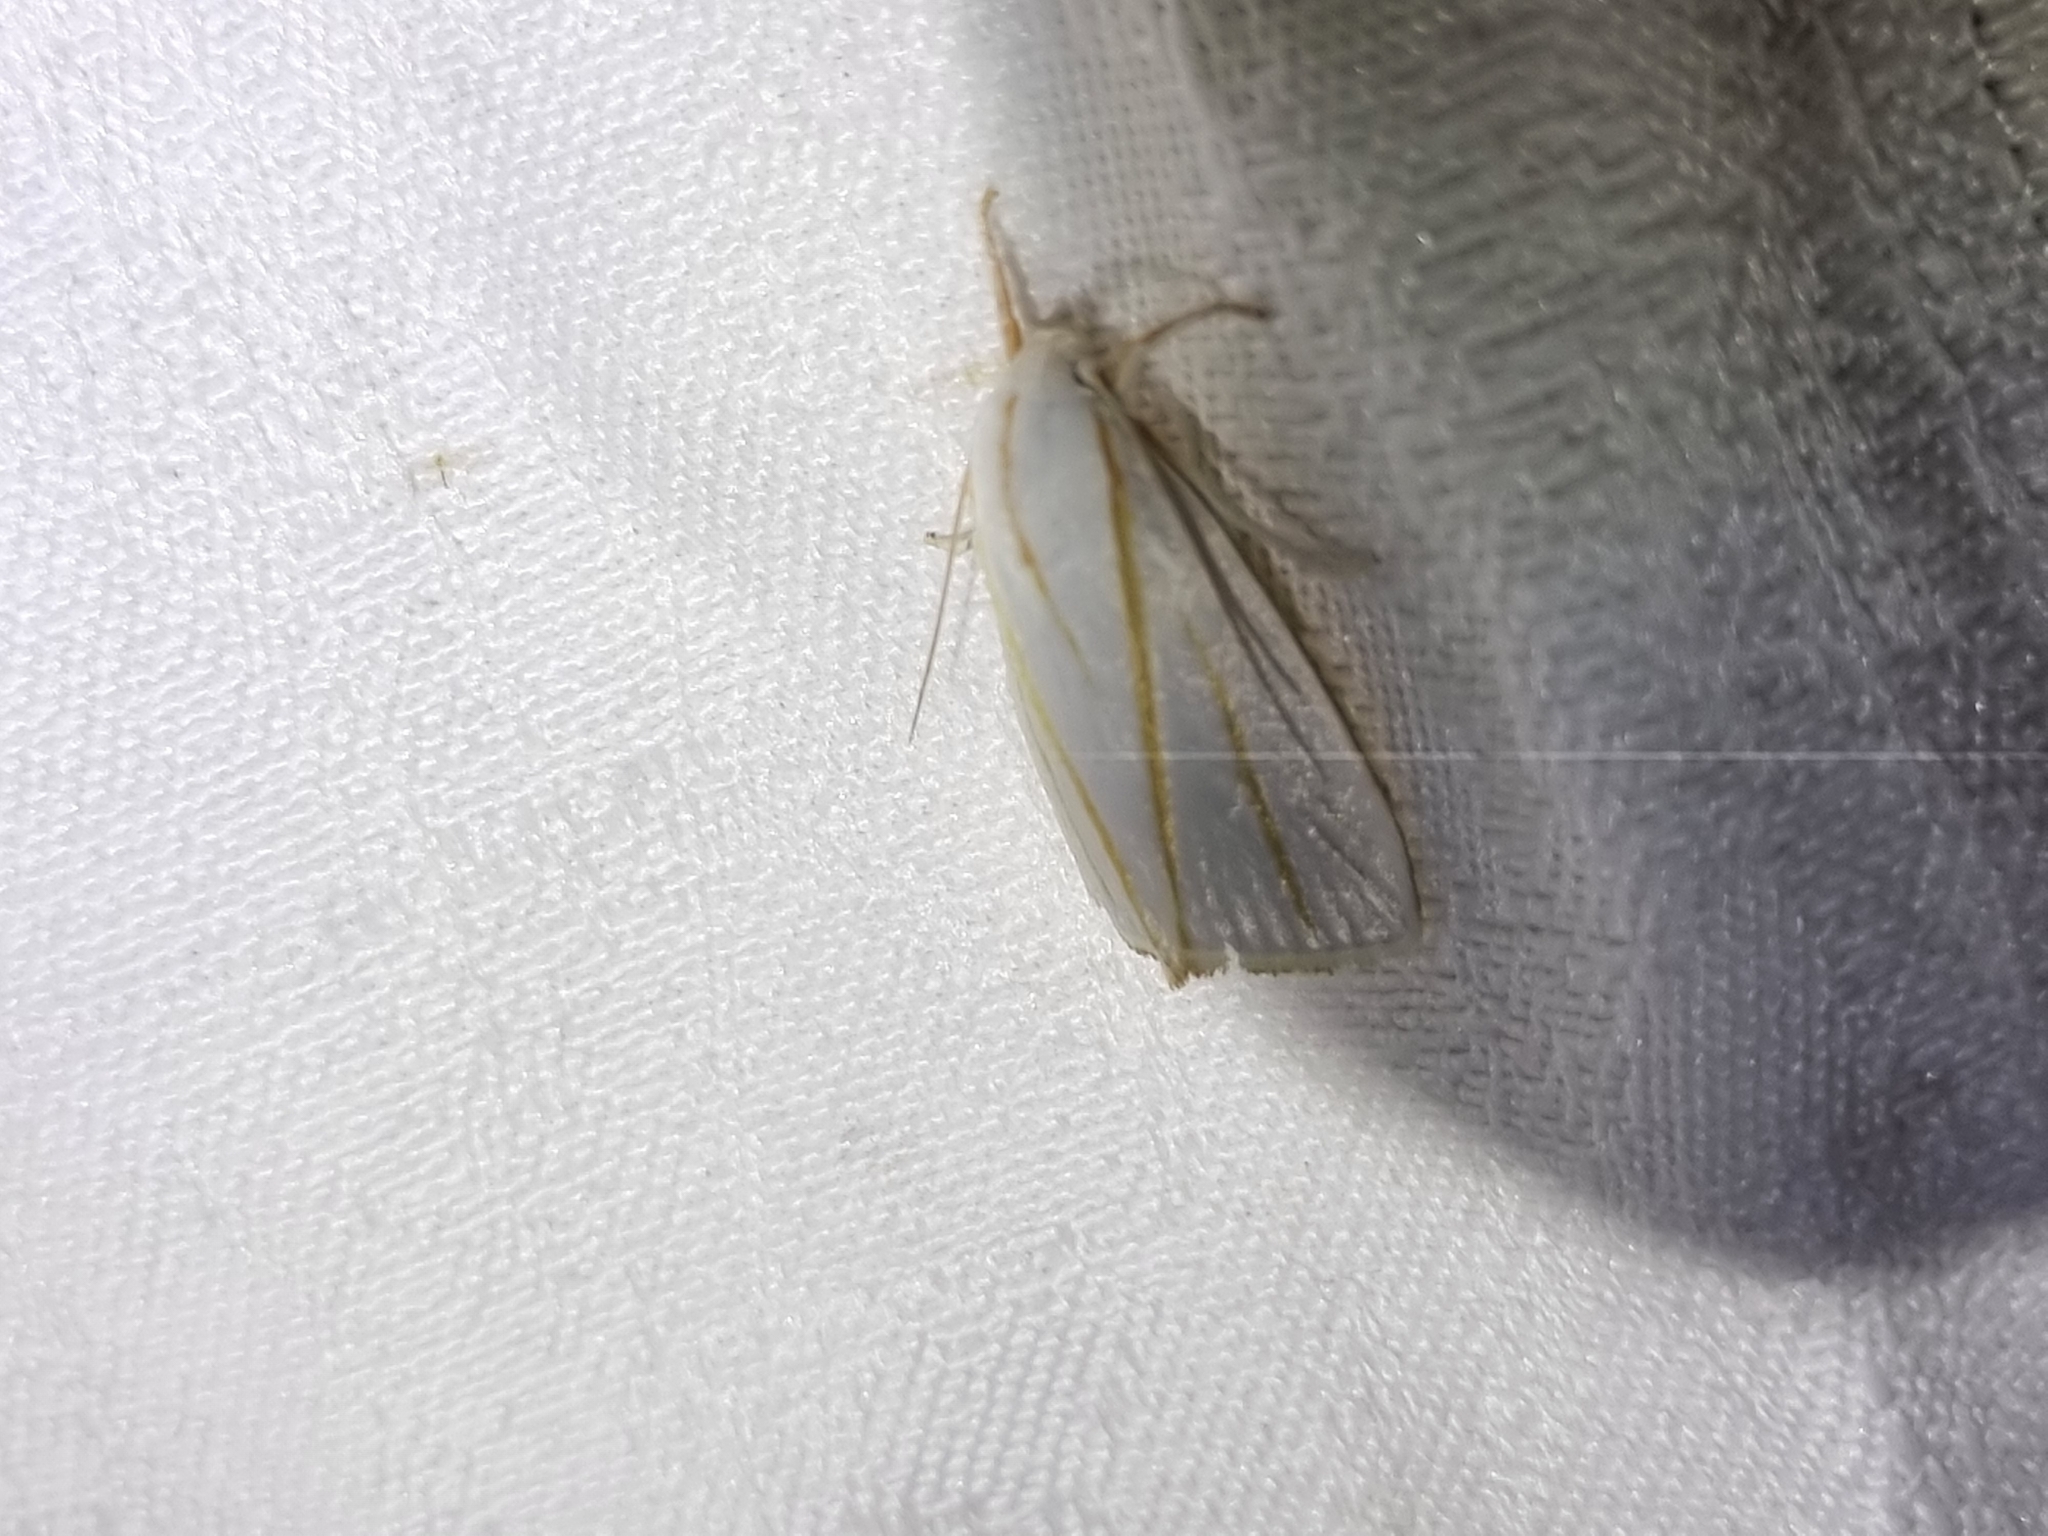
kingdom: Animalia
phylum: Arthropoda
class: Insecta
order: Lepidoptera
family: Xyloryctidae
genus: Cryptophasa
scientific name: Cryptophasa flavolineata
